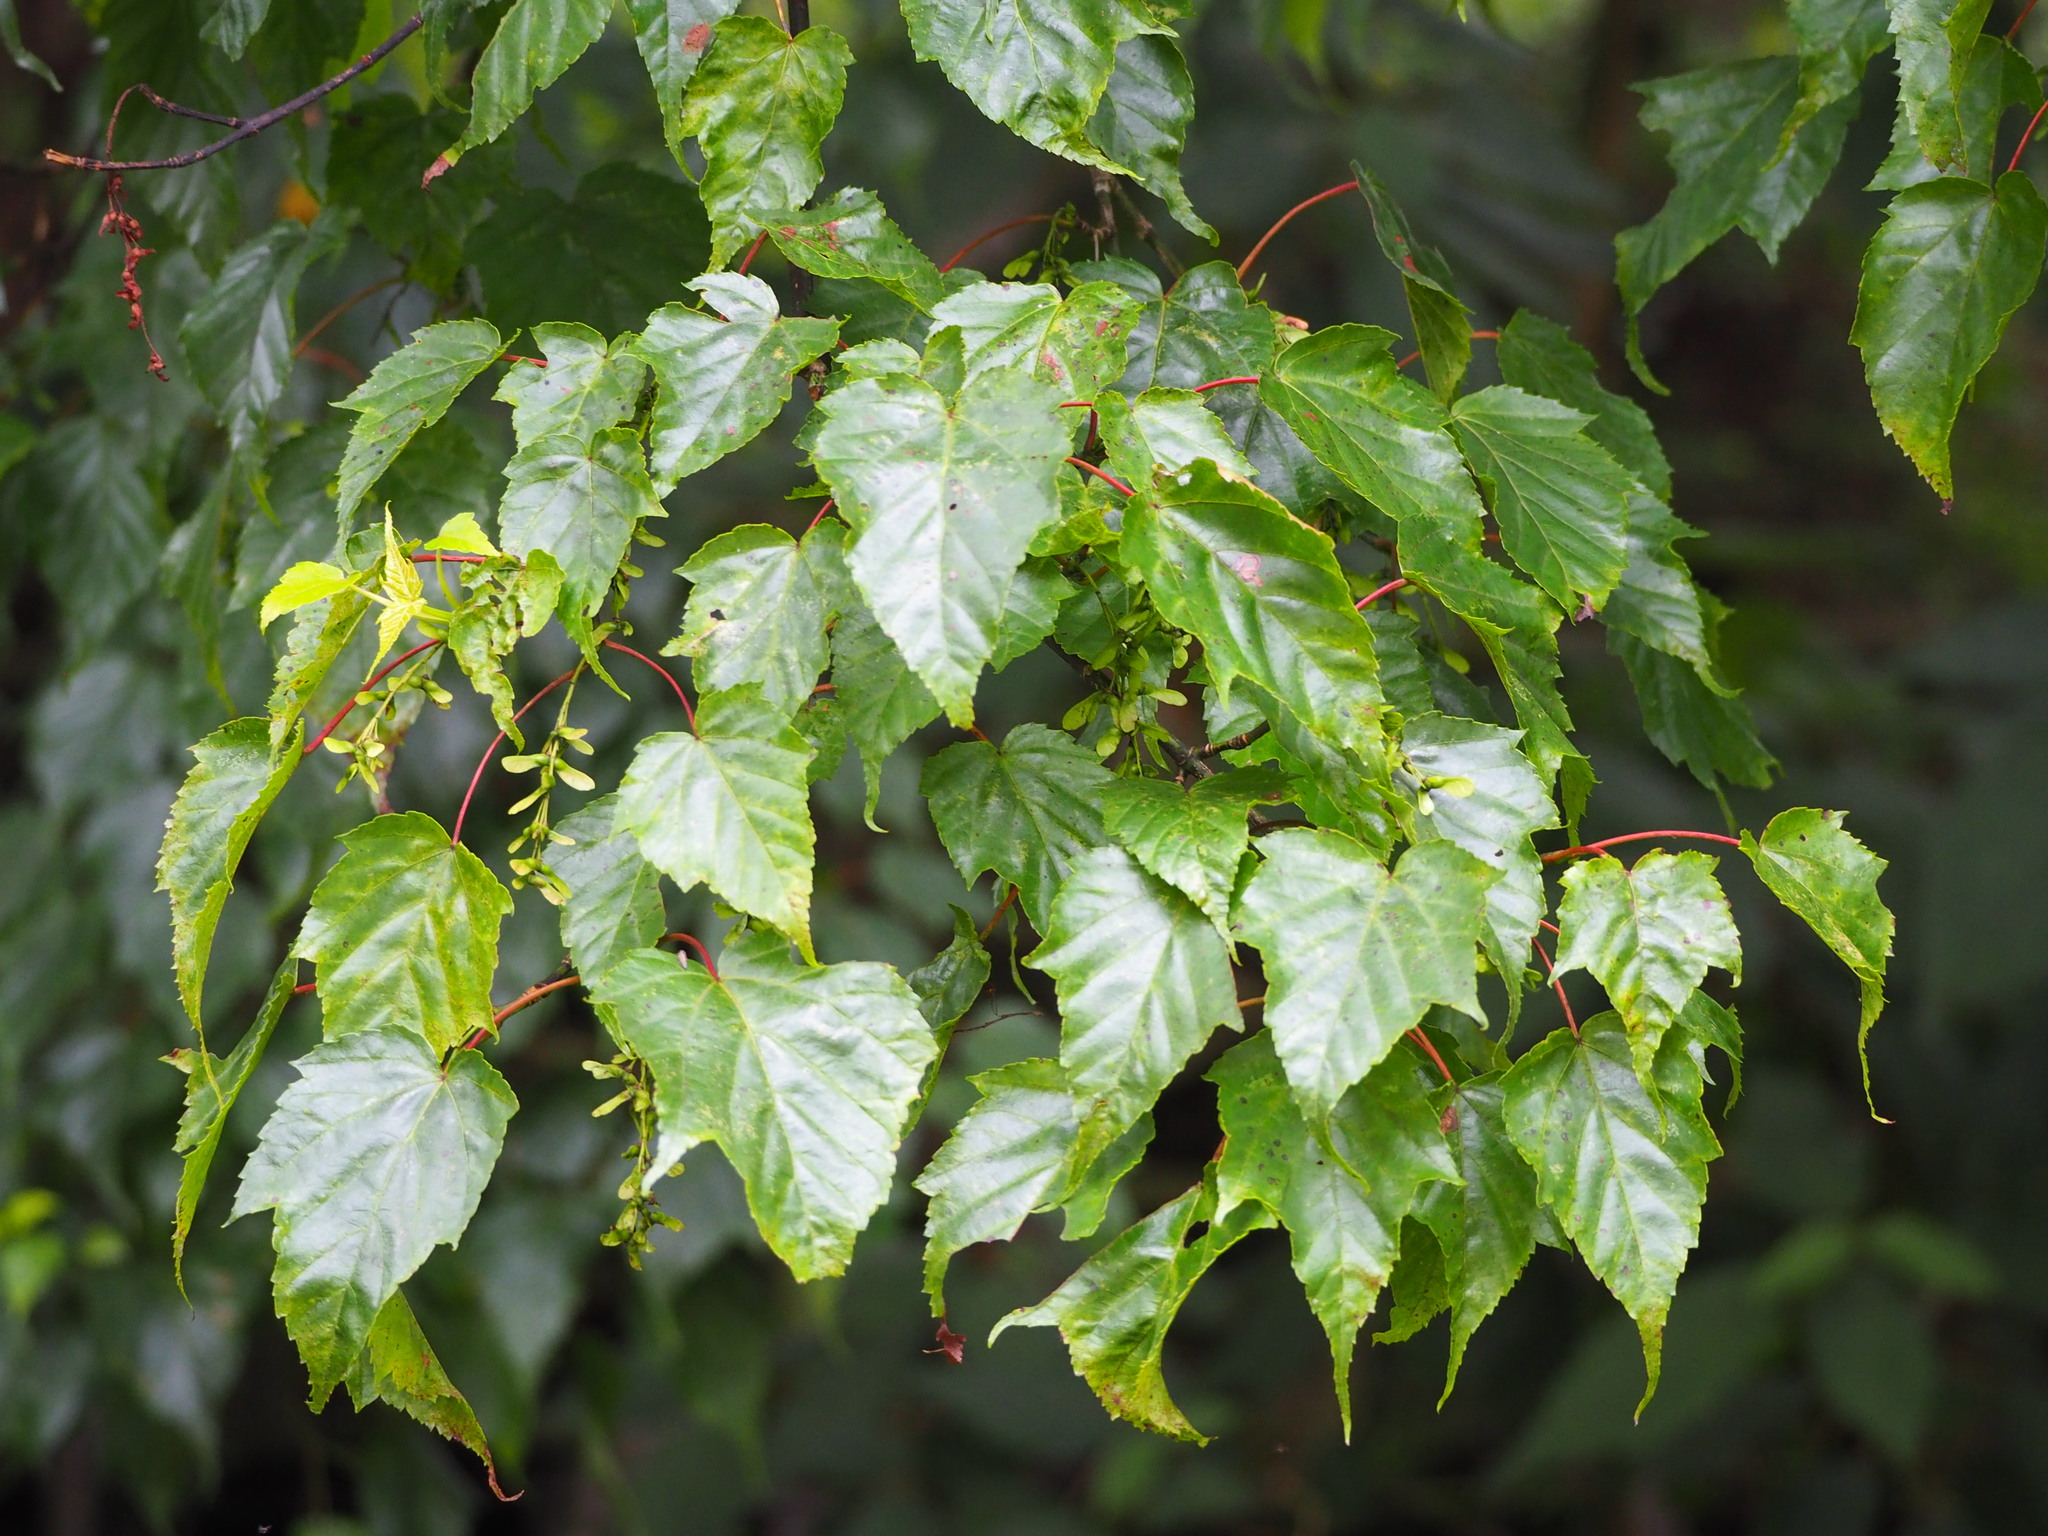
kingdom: Plantae
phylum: Tracheophyta
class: Magnoliopsida
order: Sapindales
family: Sapindaceae
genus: Acer
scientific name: Acer caudatifolium
